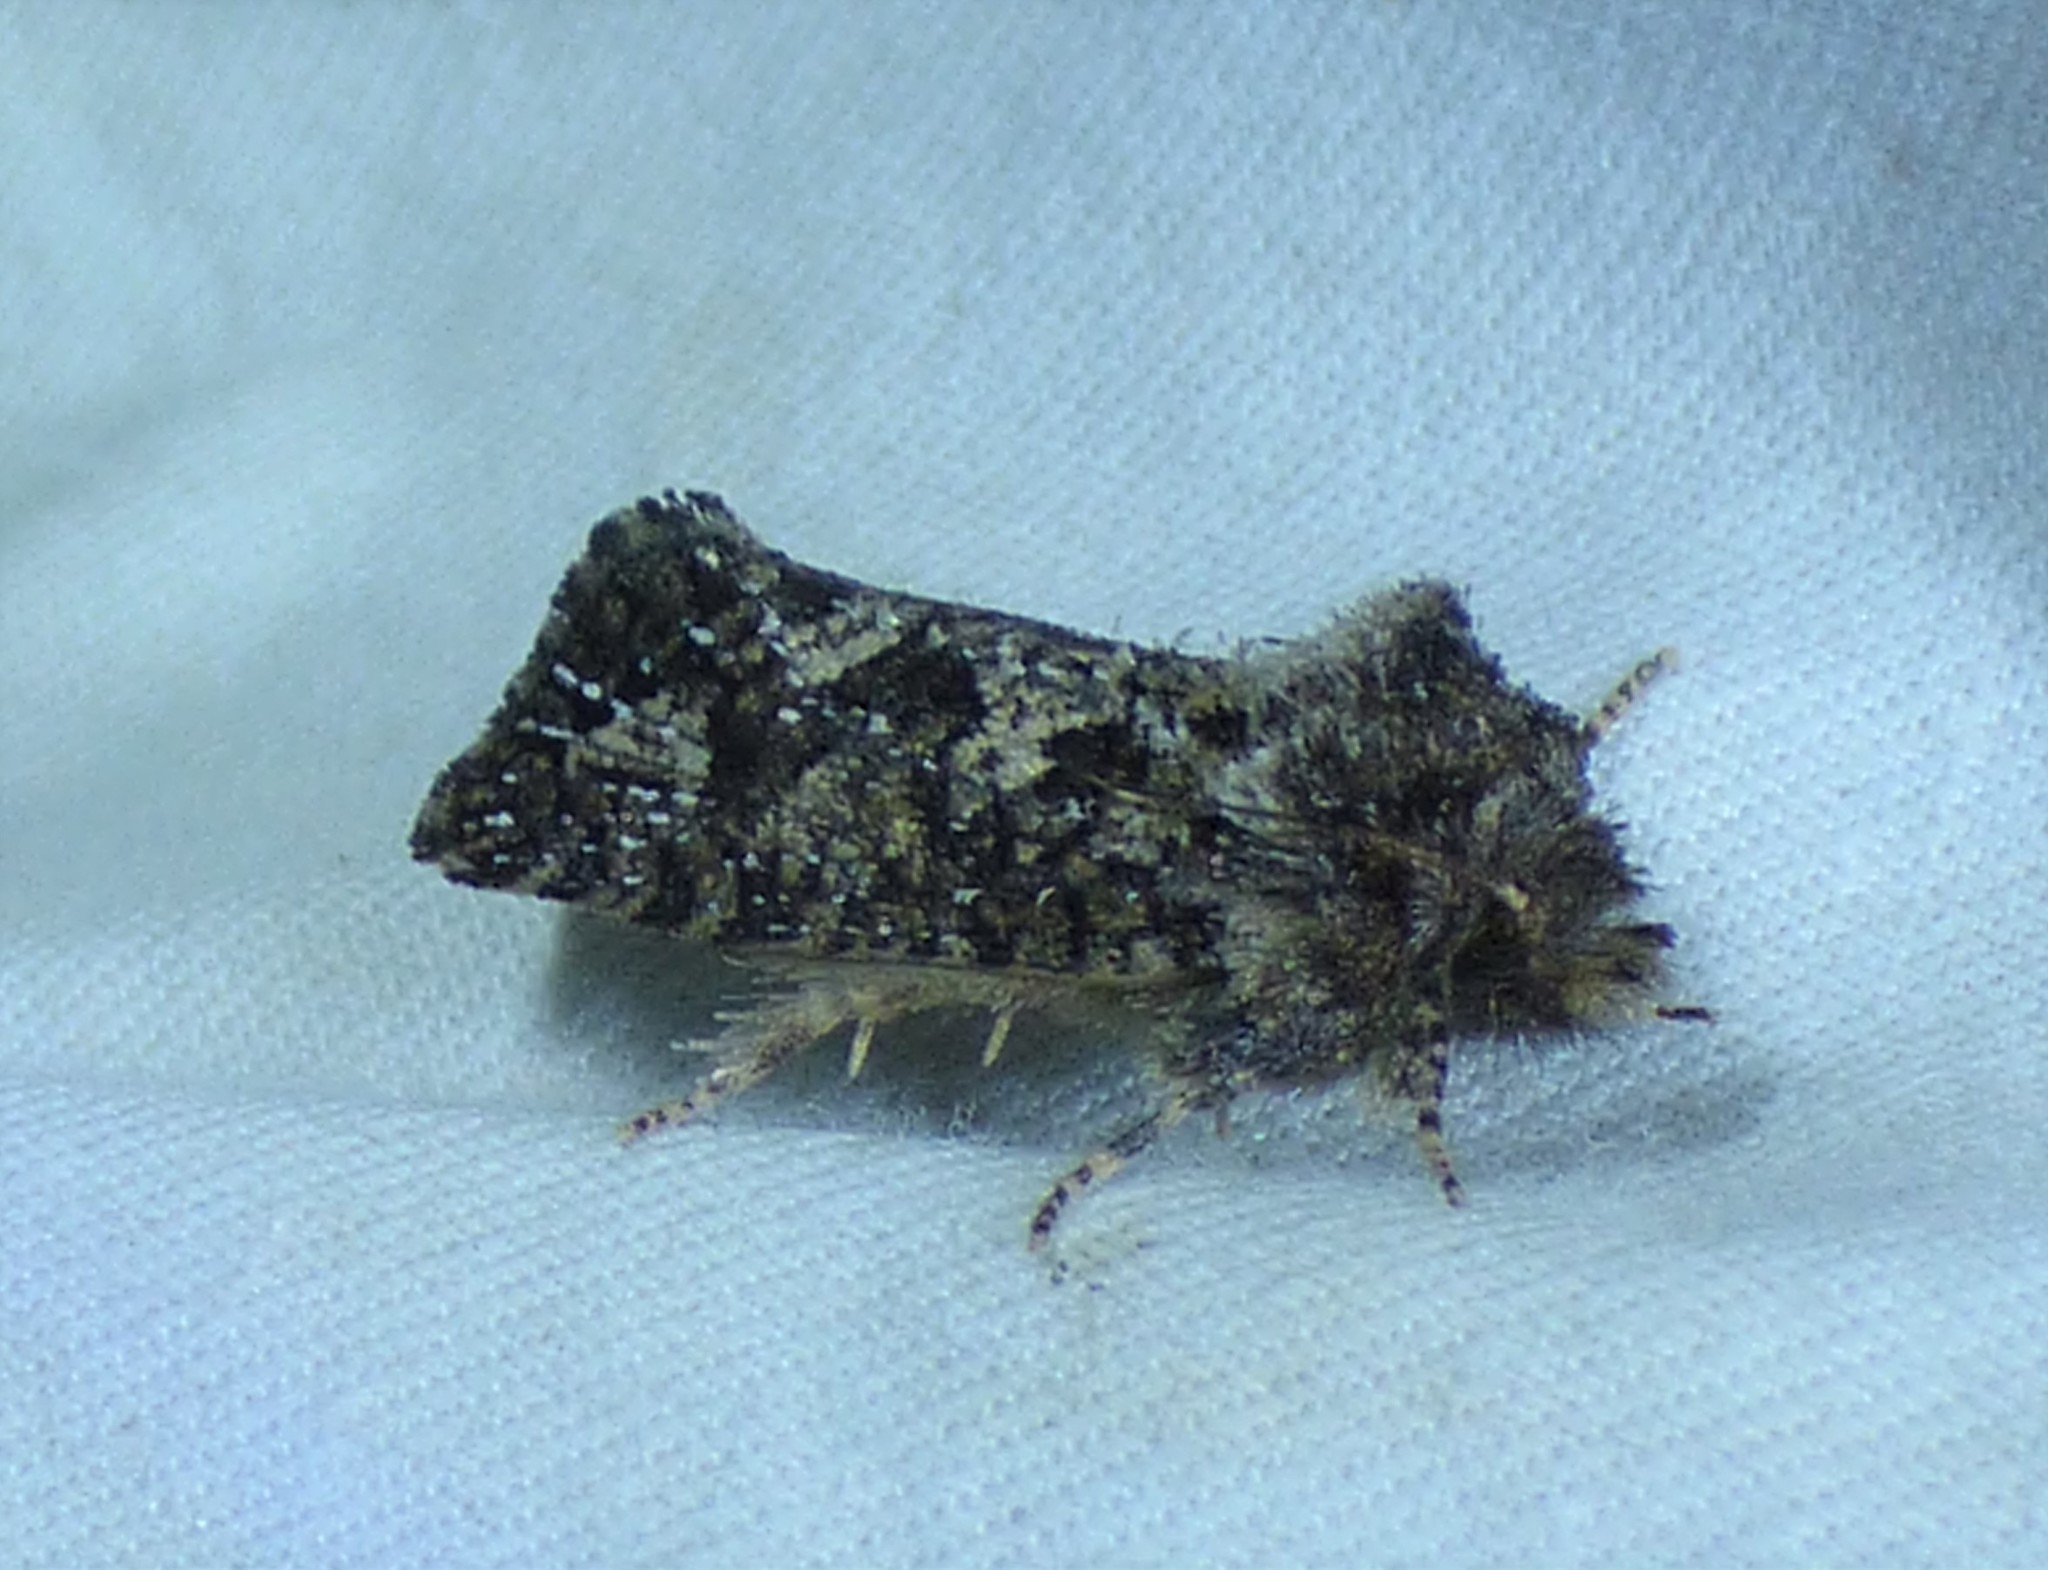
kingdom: Animalia
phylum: Arthropoda
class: Insecta
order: Lepidoptera
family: Tineidae
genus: Acrolophus
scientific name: Acrolophus arcanella
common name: Arcane grass tubeworm moth
